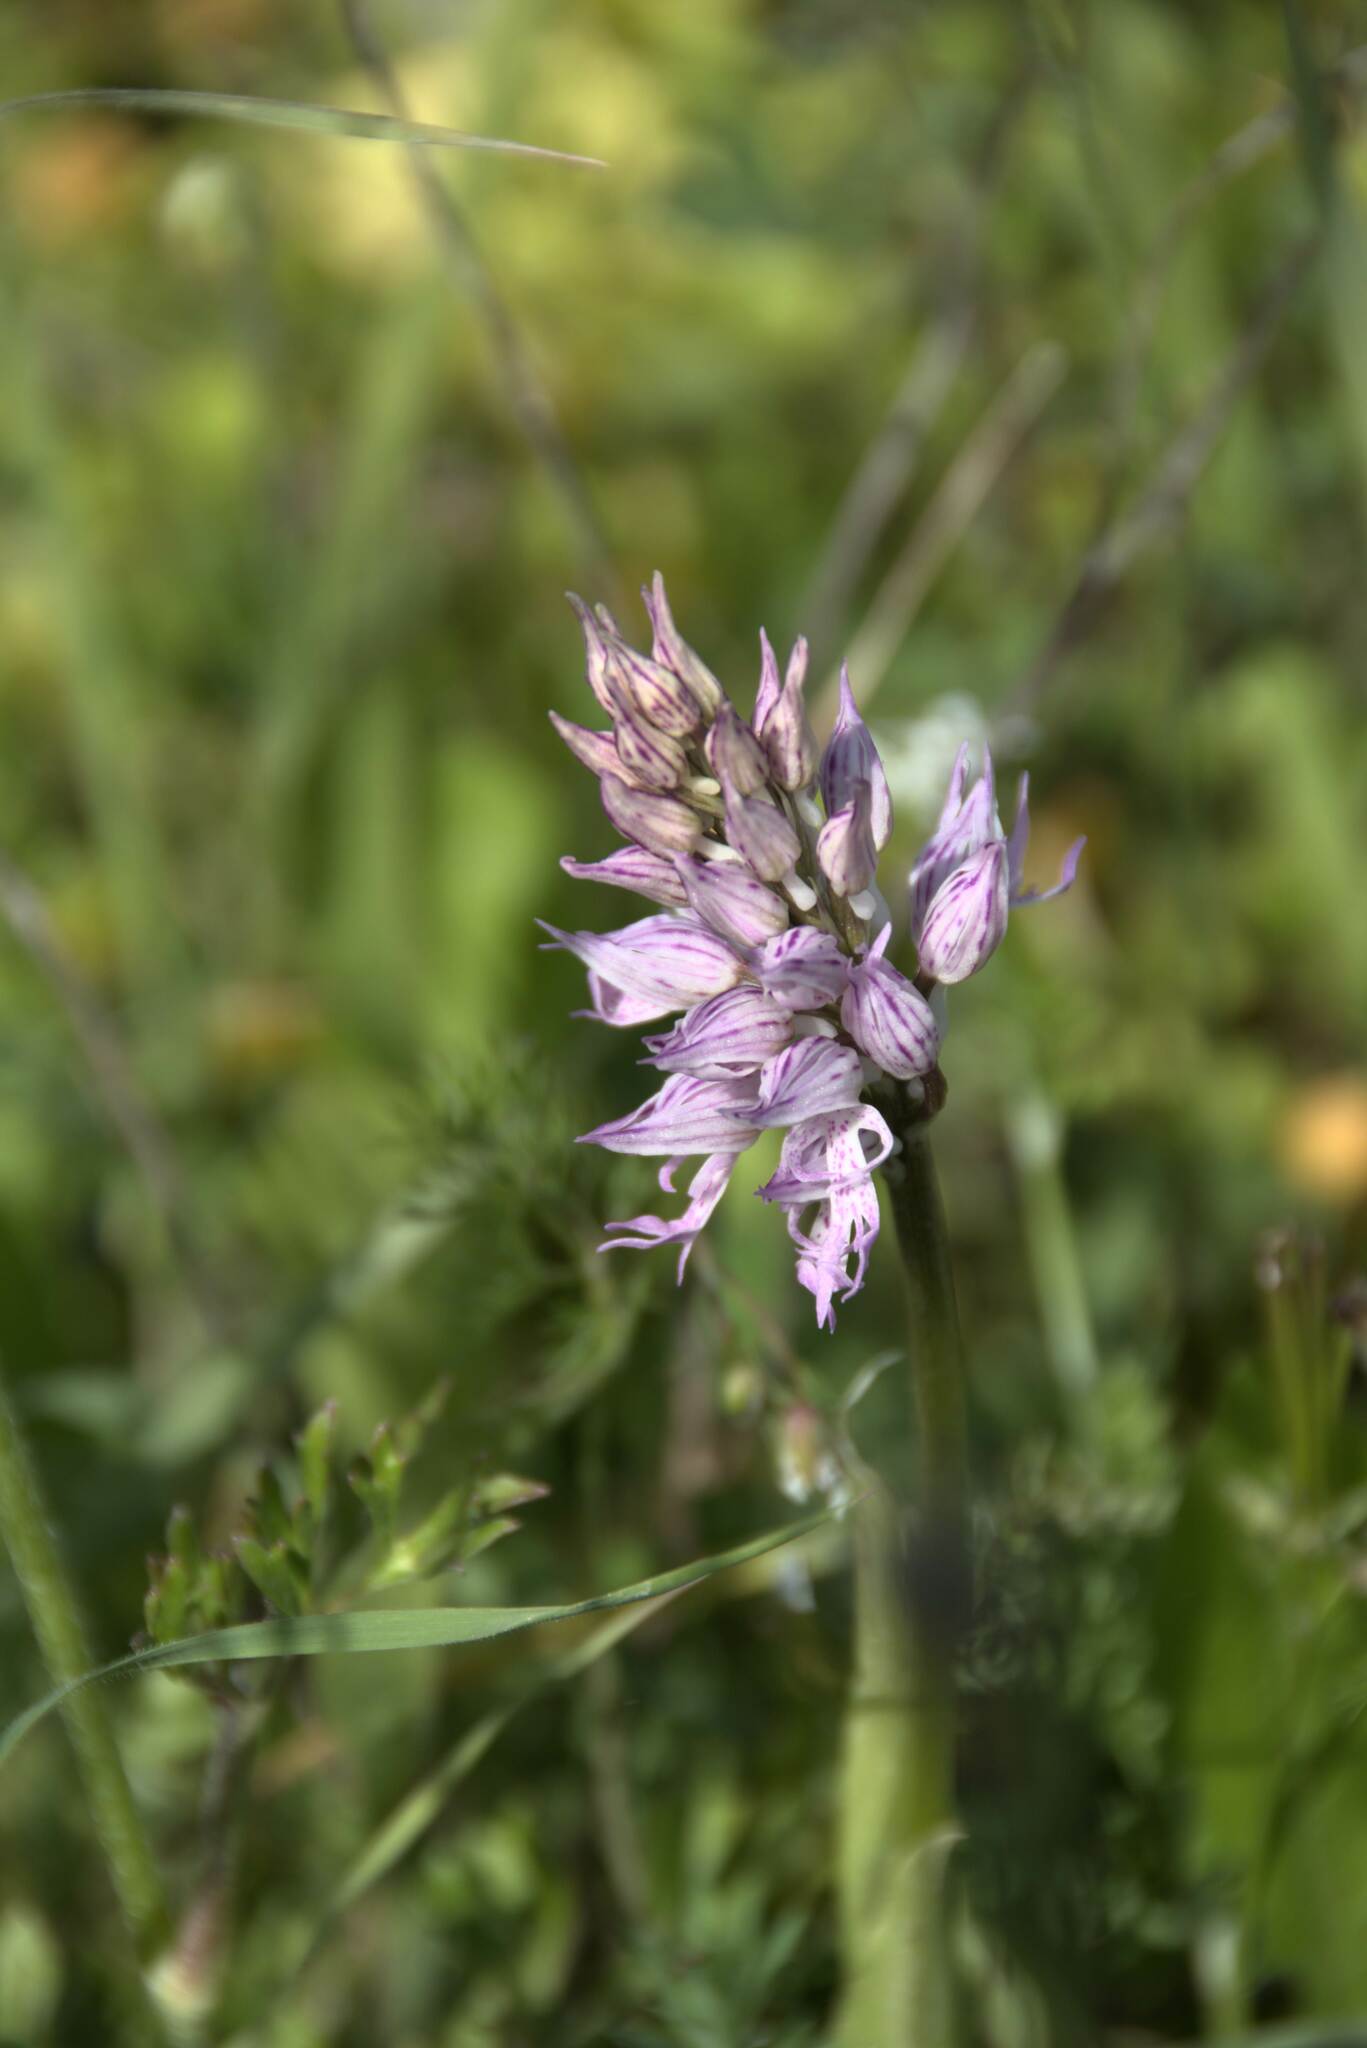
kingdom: Plantae
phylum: Tracheophyta
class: Liliopsida
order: Asparagales
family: Orchidaceae
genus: Orchis
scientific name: Orchis italica
